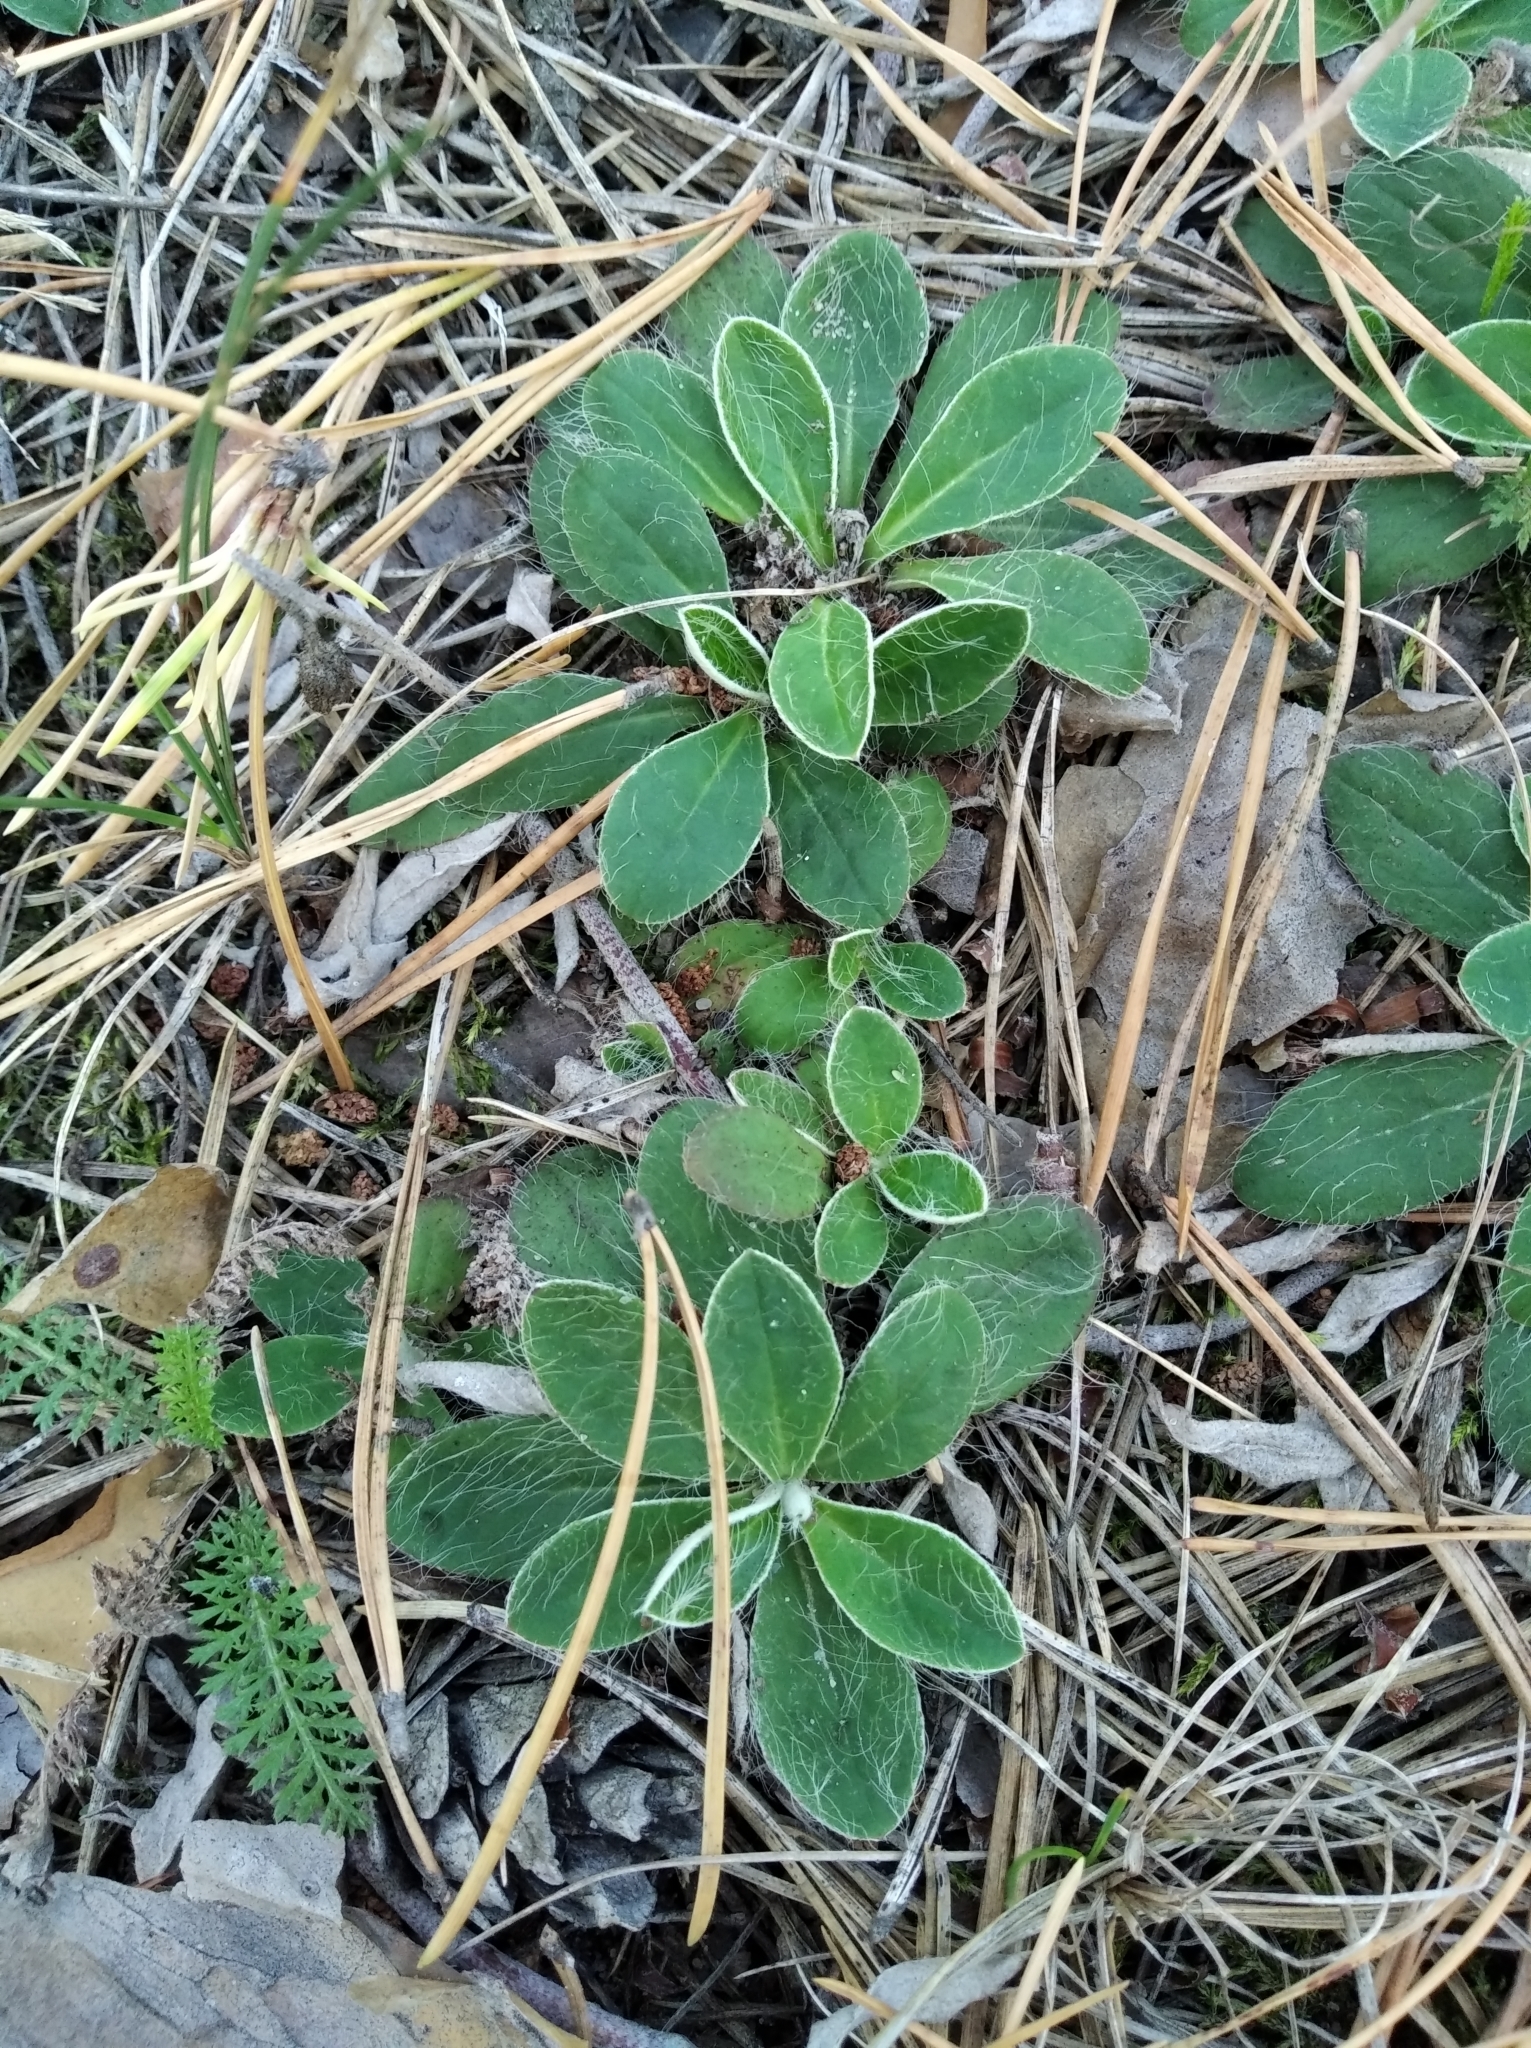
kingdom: Plantae
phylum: Tracheophyta
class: Magnoliopsida
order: Asterales
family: Asteraceae
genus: Pilosella
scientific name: Pilosella officinarum
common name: Mouse-ear hawkweed
